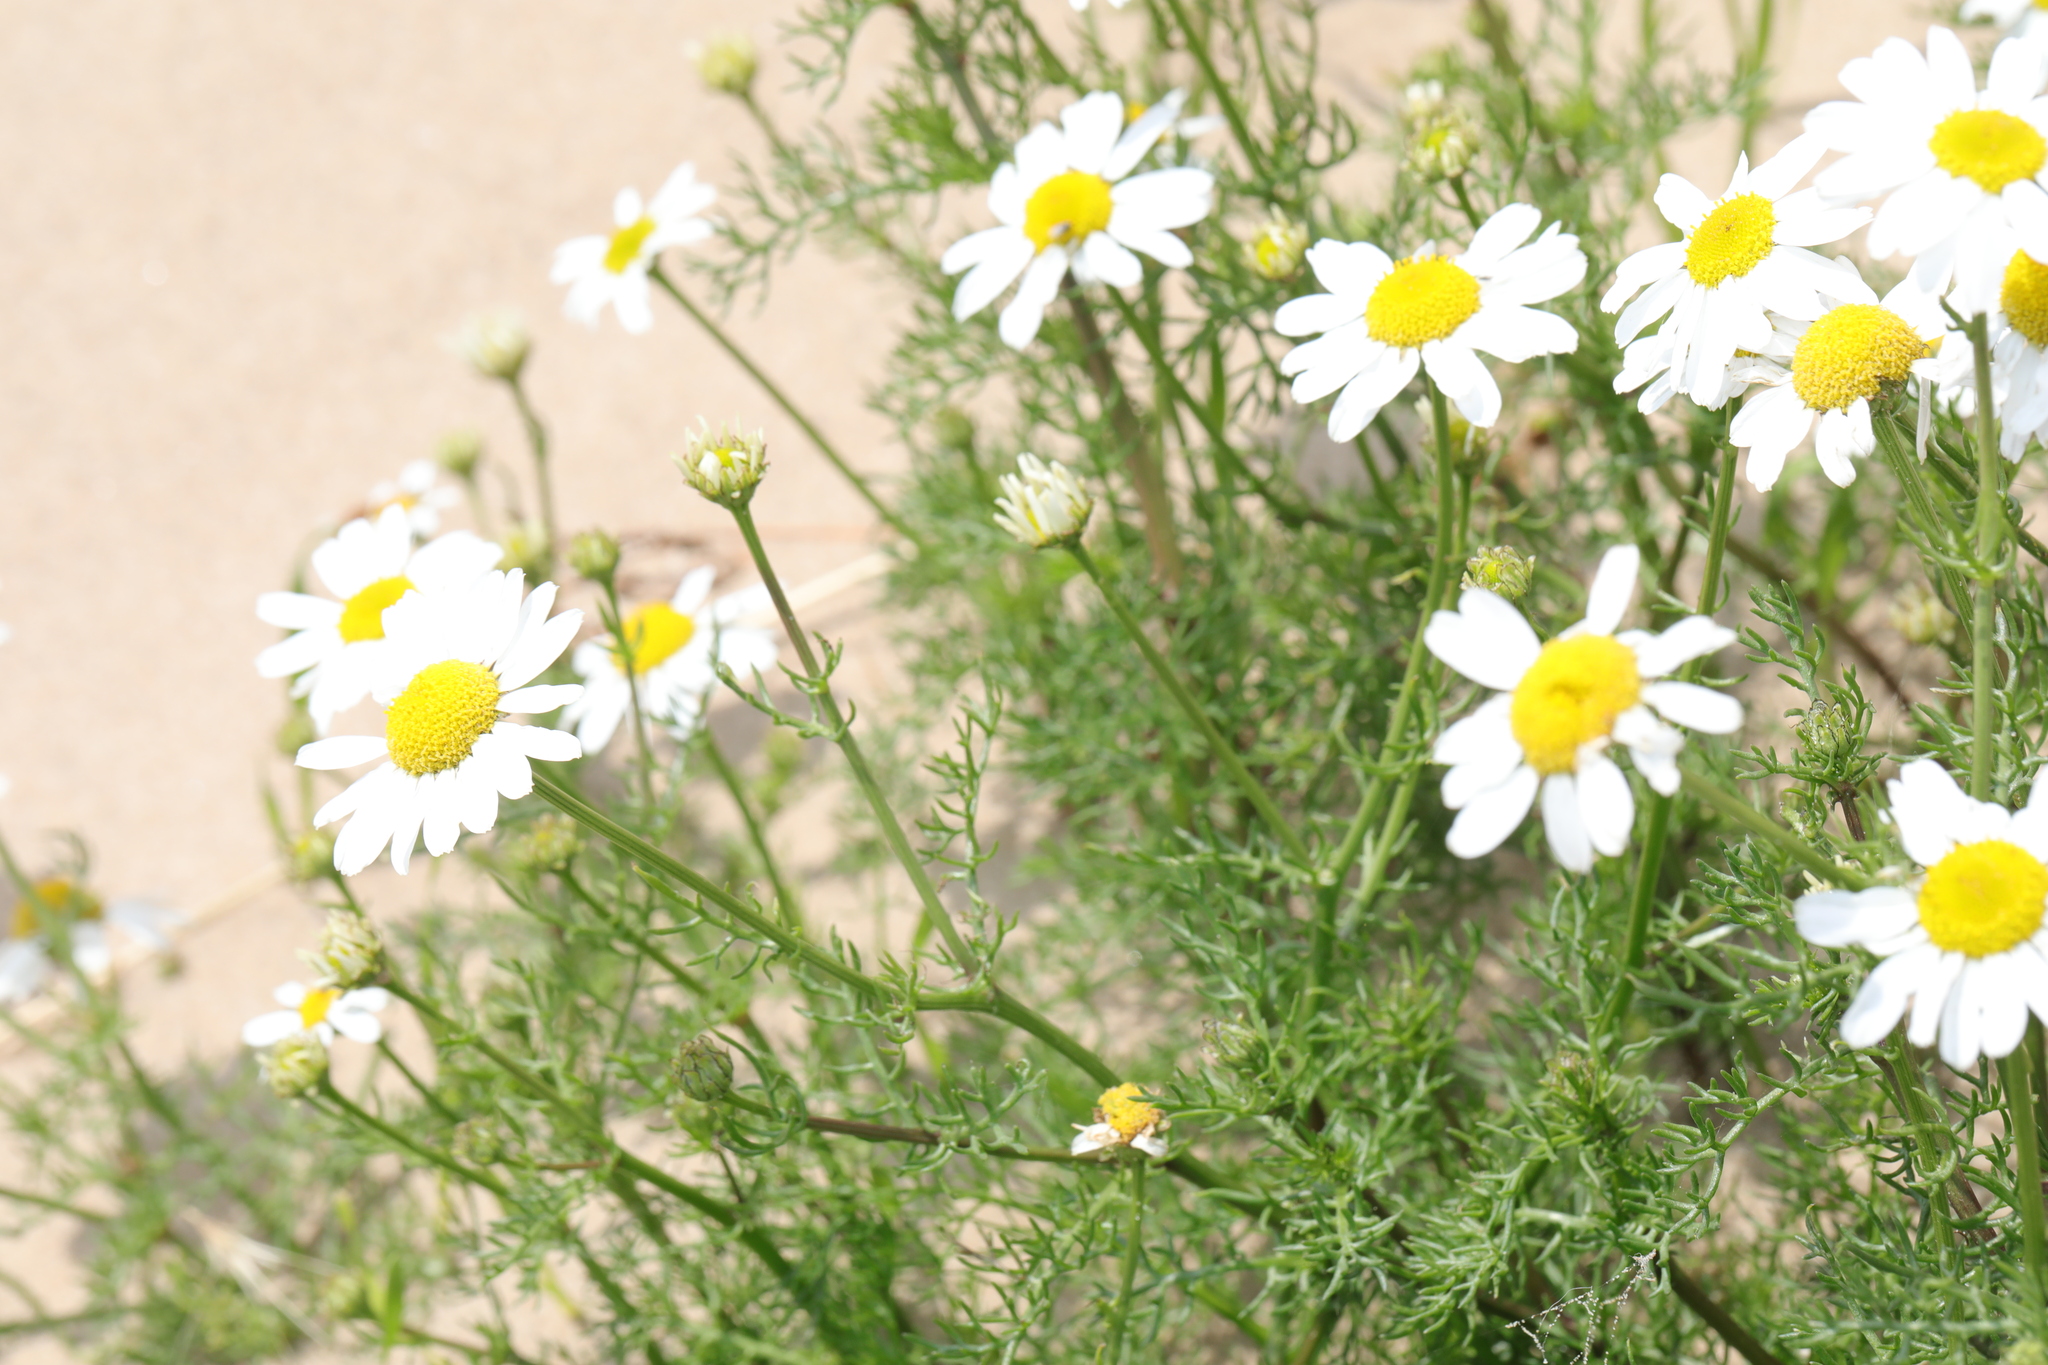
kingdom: Plantae
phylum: Tracheophyta
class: Magnoliopsida
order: Asterales
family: Asteraceae
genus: Tripleurospermum
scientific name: Tripleurospermum maritimum
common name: Sea mayweed
